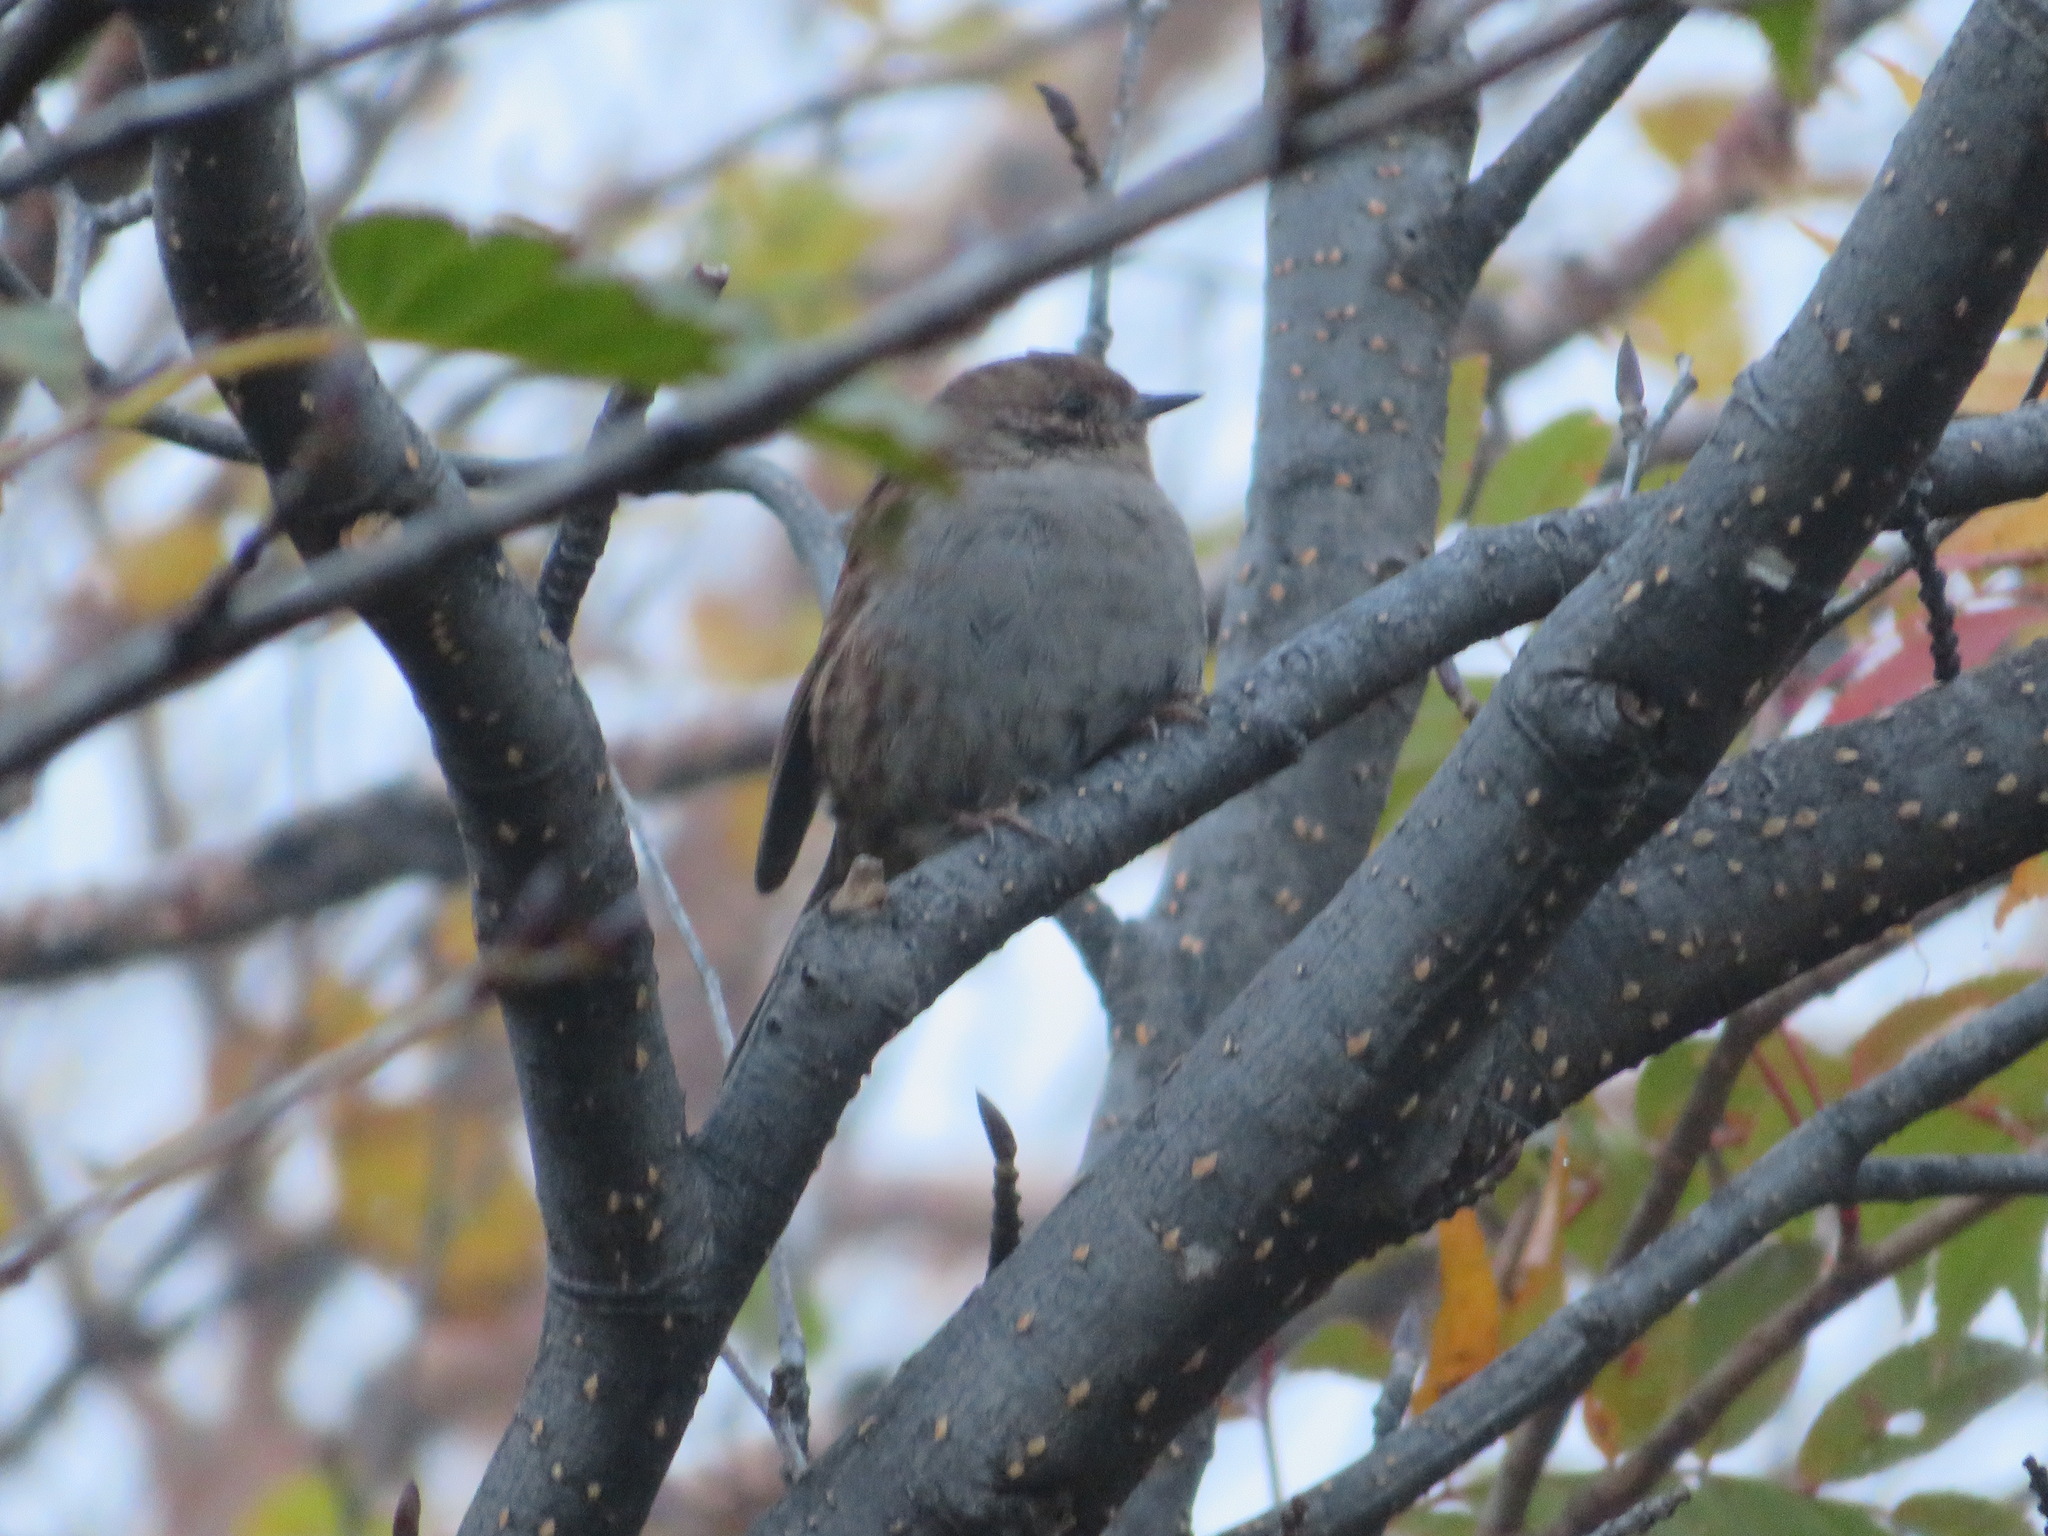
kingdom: Animalia
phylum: Chordata
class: Aves
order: Passeriformes
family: Prunellidae
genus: Prunella
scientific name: Prunella rubida
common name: Japanese accentor
